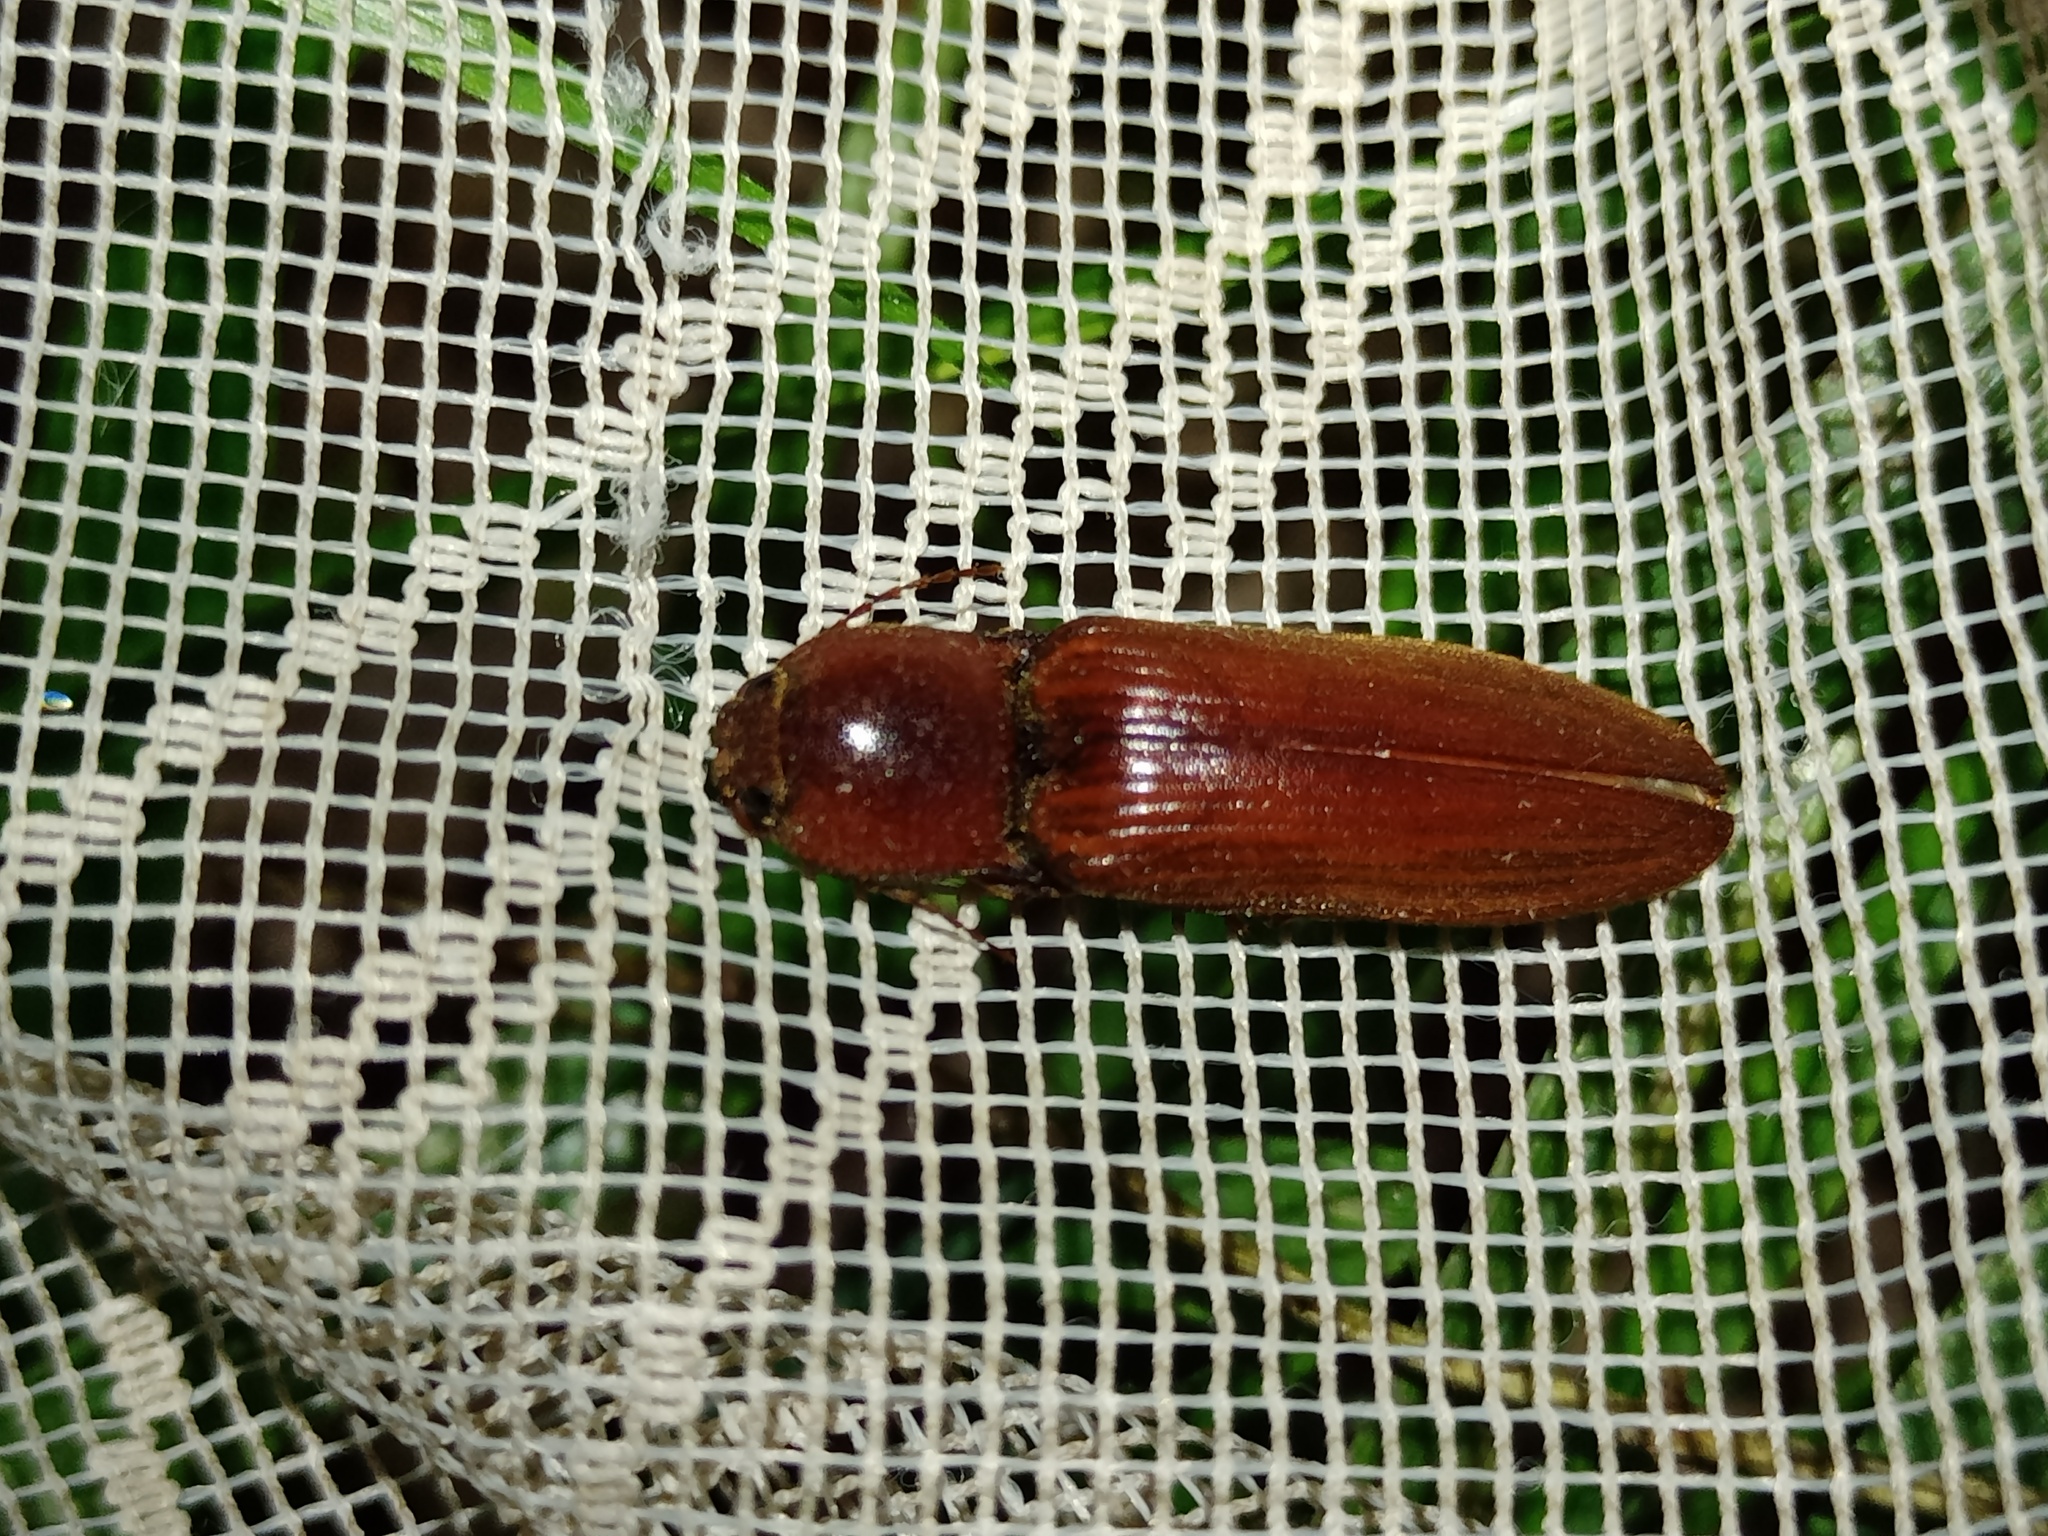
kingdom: Animalia
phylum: Arthropoda
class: Insecta
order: Coleoptera
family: Elateridae
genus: Stenagostus
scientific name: Stenagostus rufus
